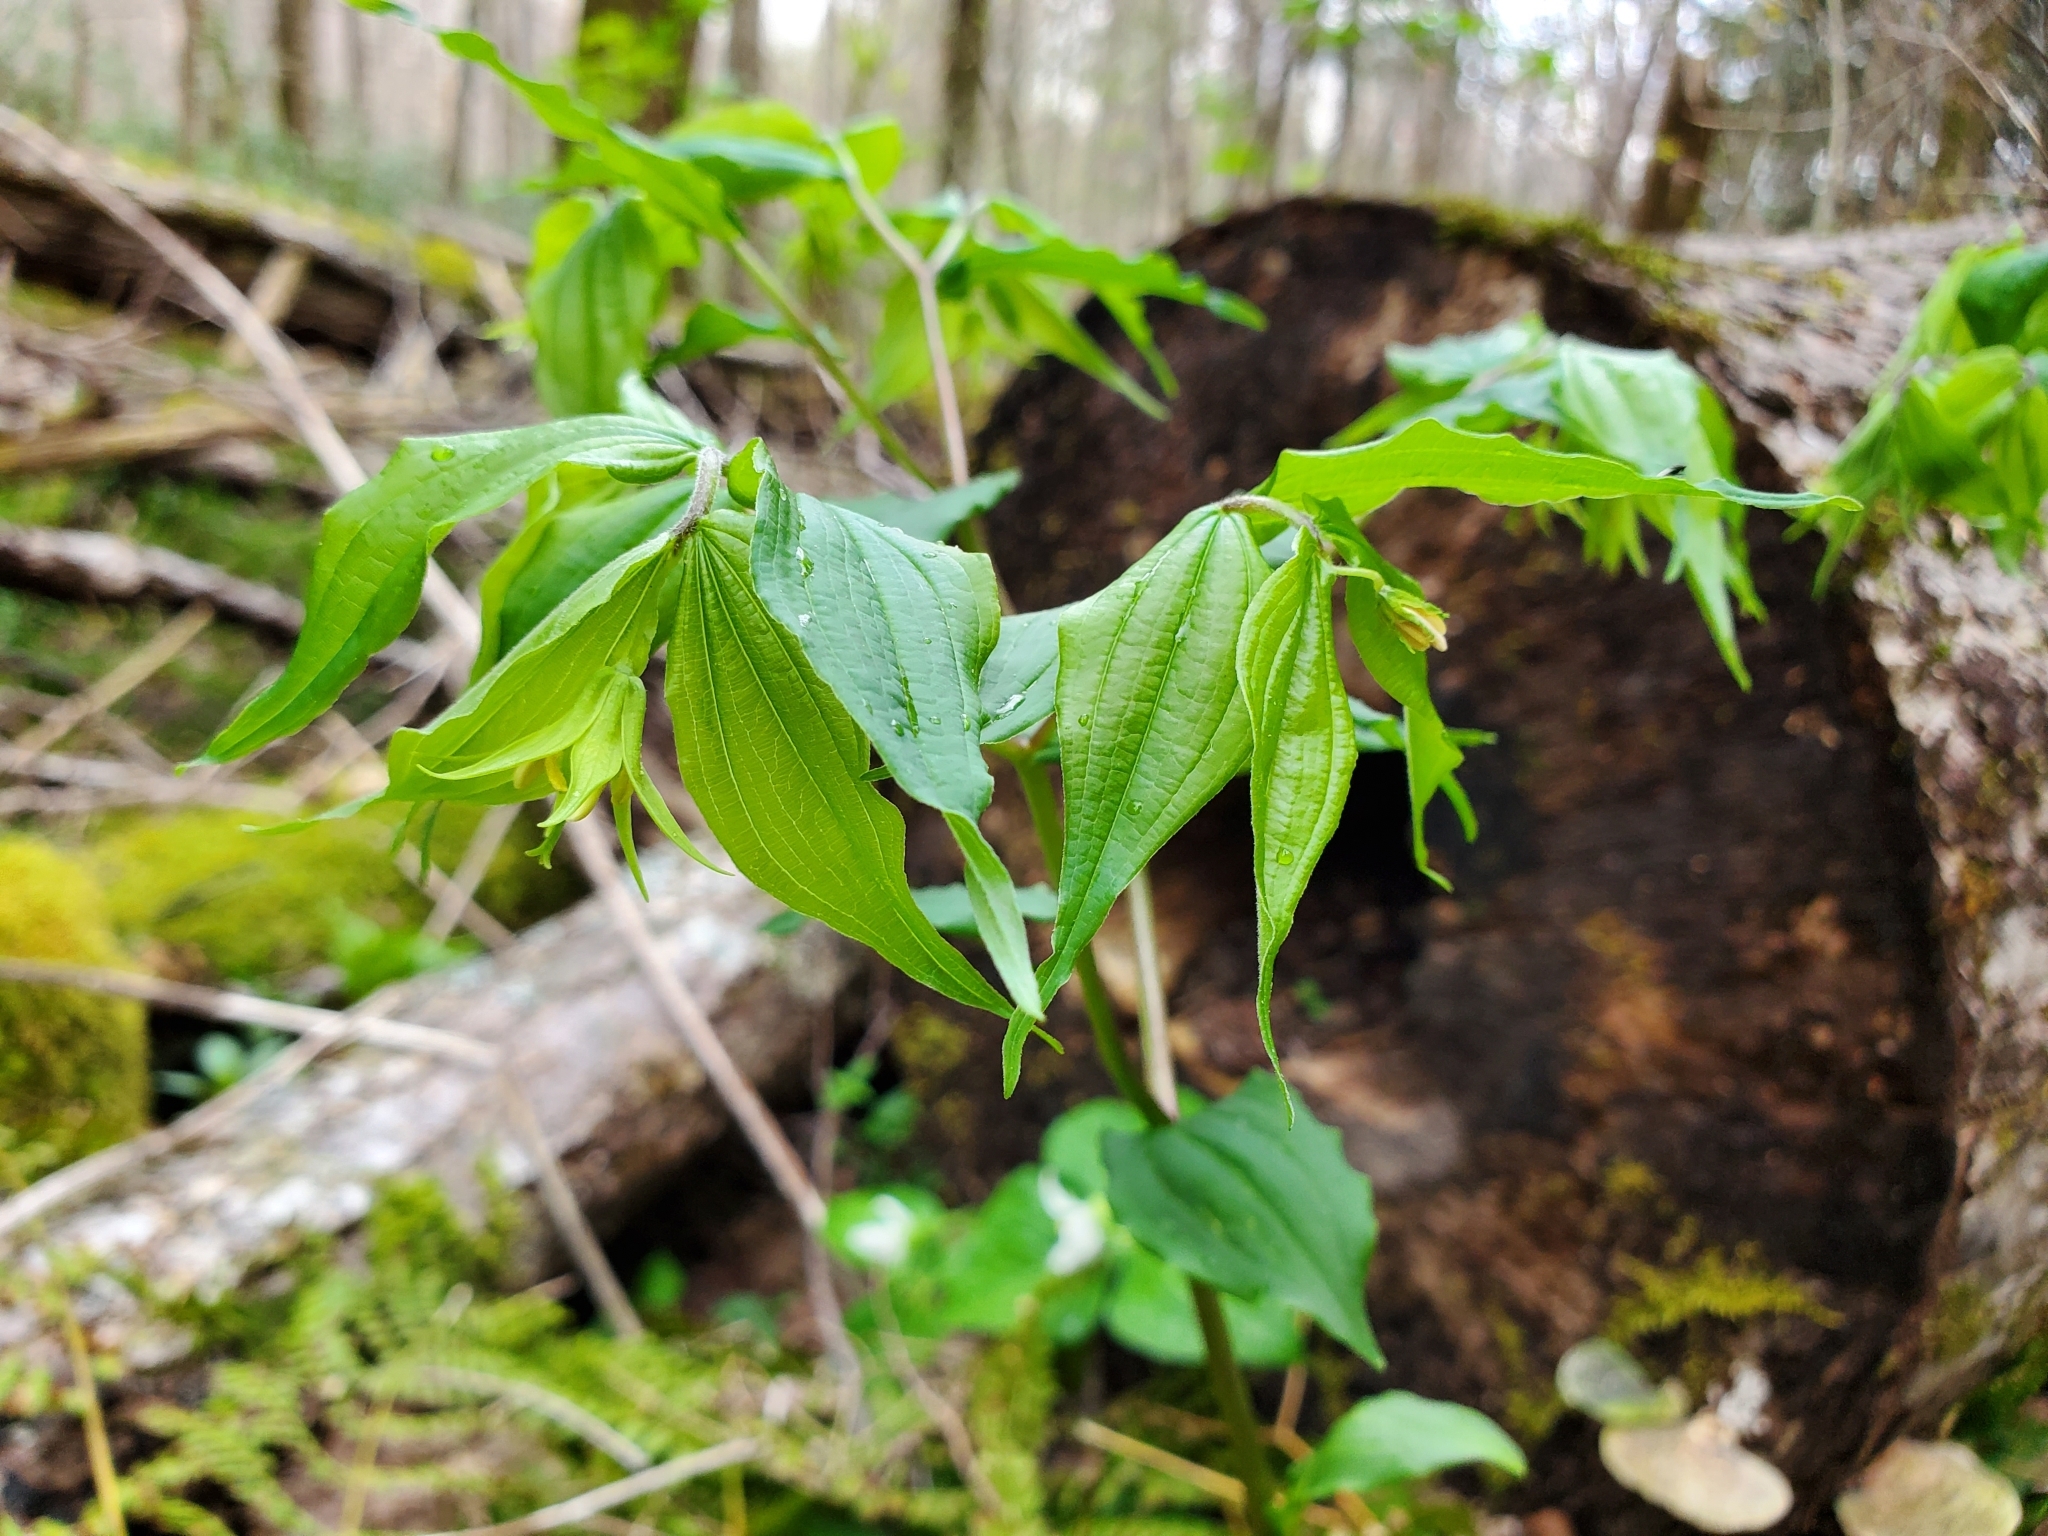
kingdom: Plantae
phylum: Tracheophyta
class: Liliopsida
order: Liliales
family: Liliaceae
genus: Prosartes
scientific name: Prosartes lanuginosa
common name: Hairy mandarin
